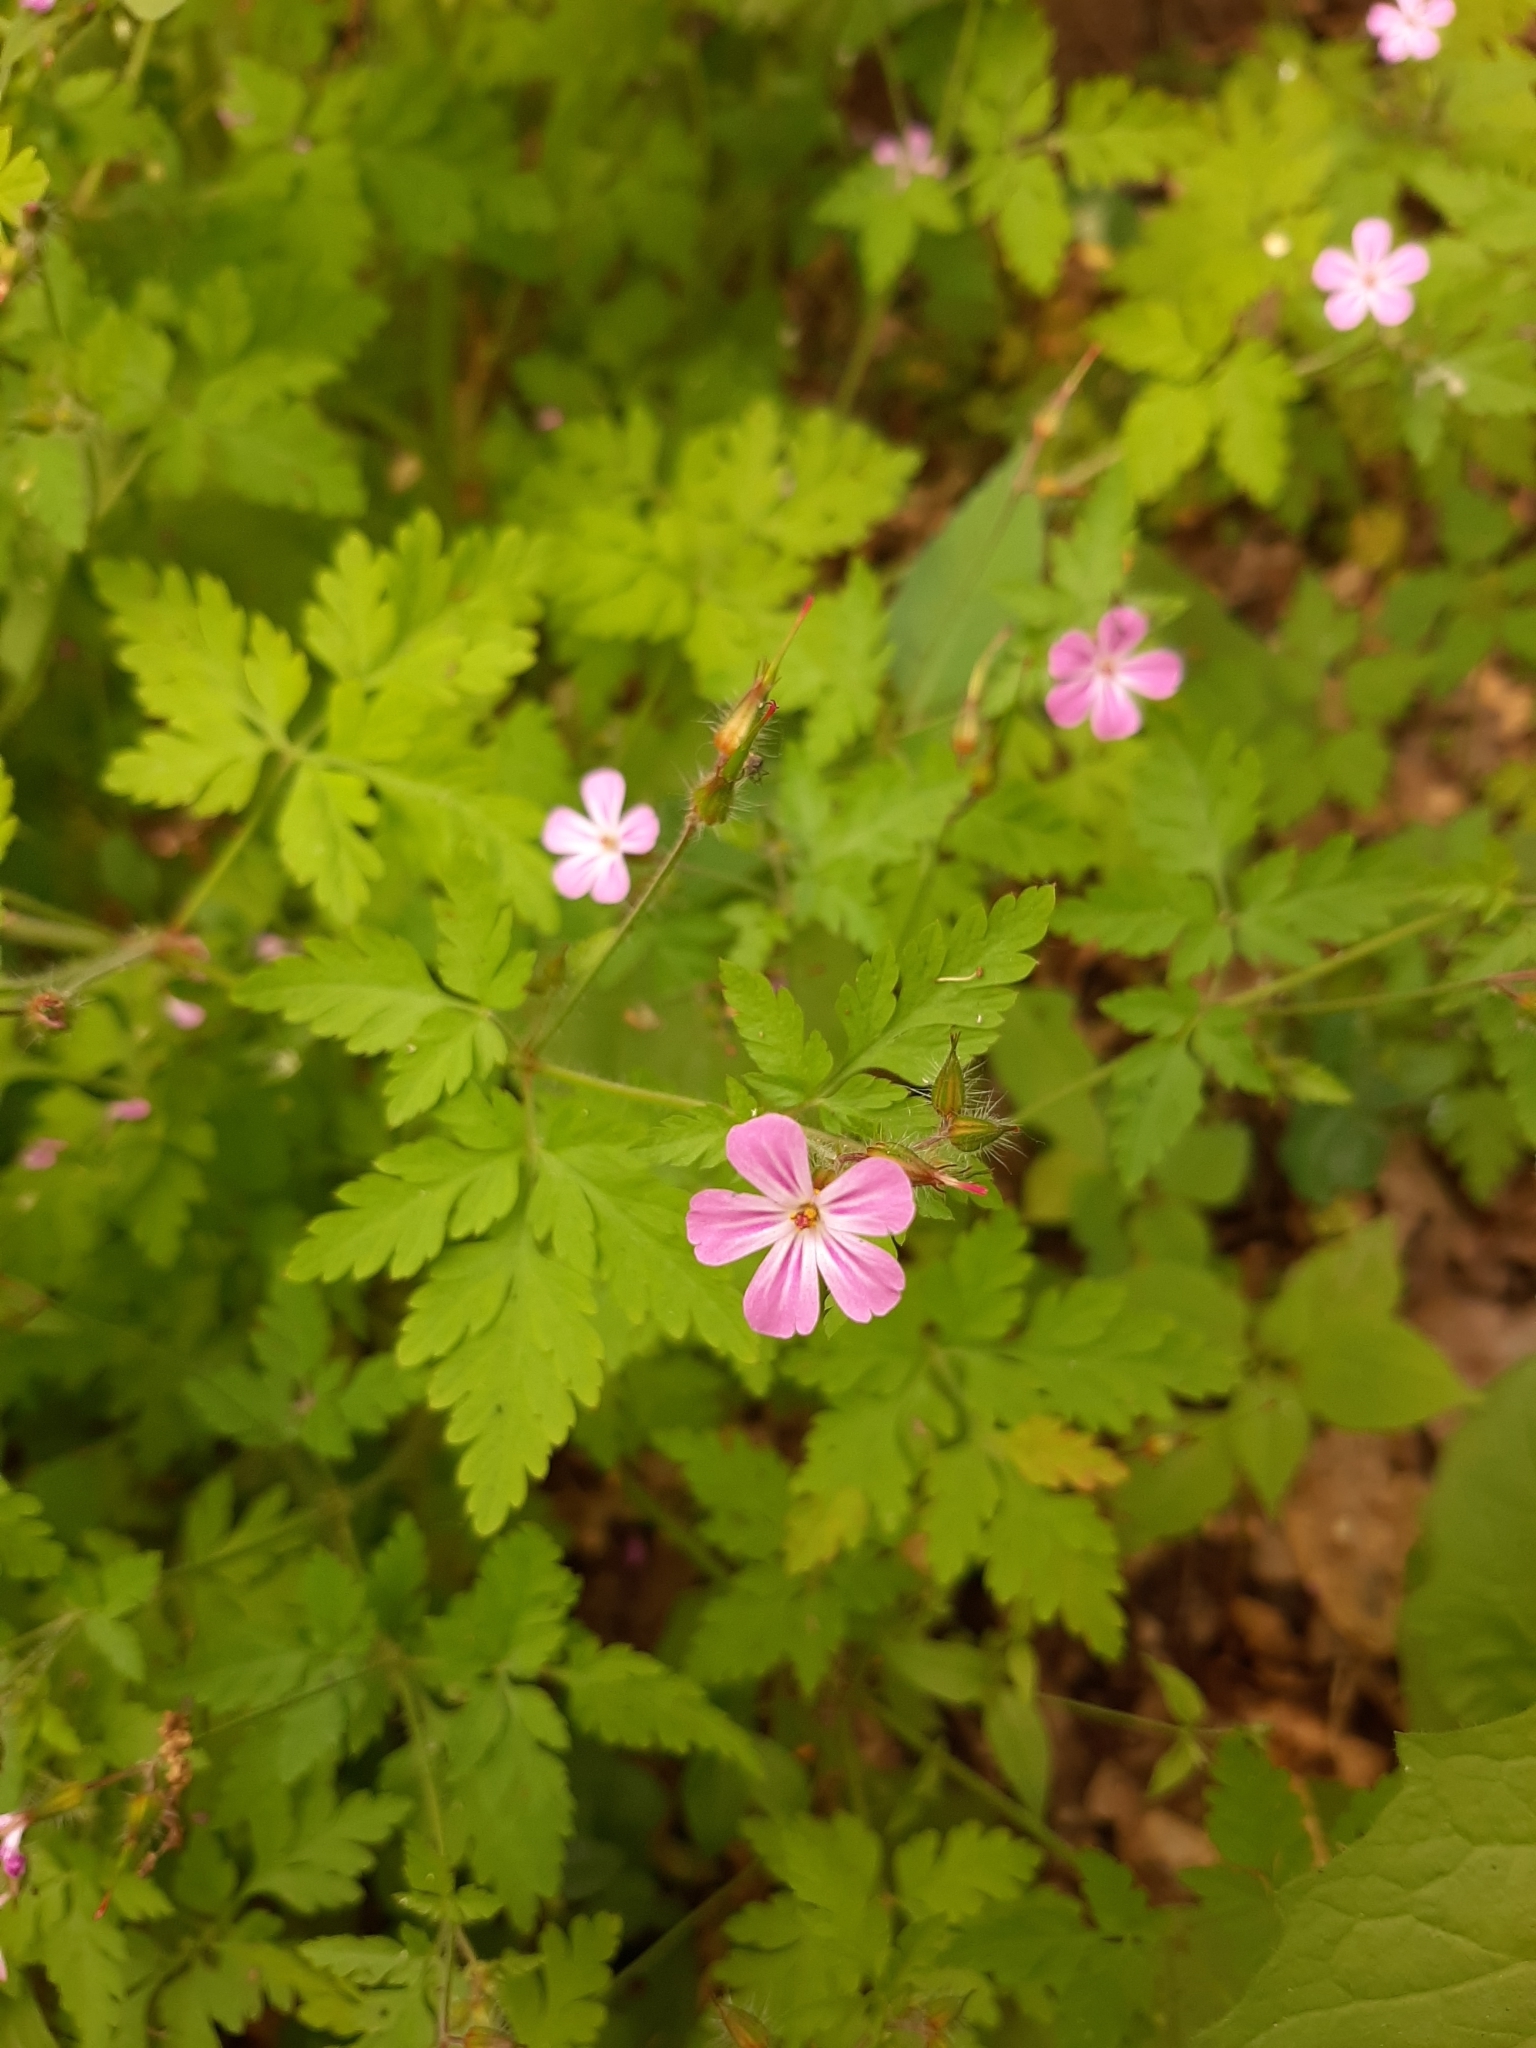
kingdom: Plantae
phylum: Tracheophyta
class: Magnoliopsida
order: Geraniales
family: Geraniaceae
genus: Geranium
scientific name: Geranium robertianum
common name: Herb-robert
